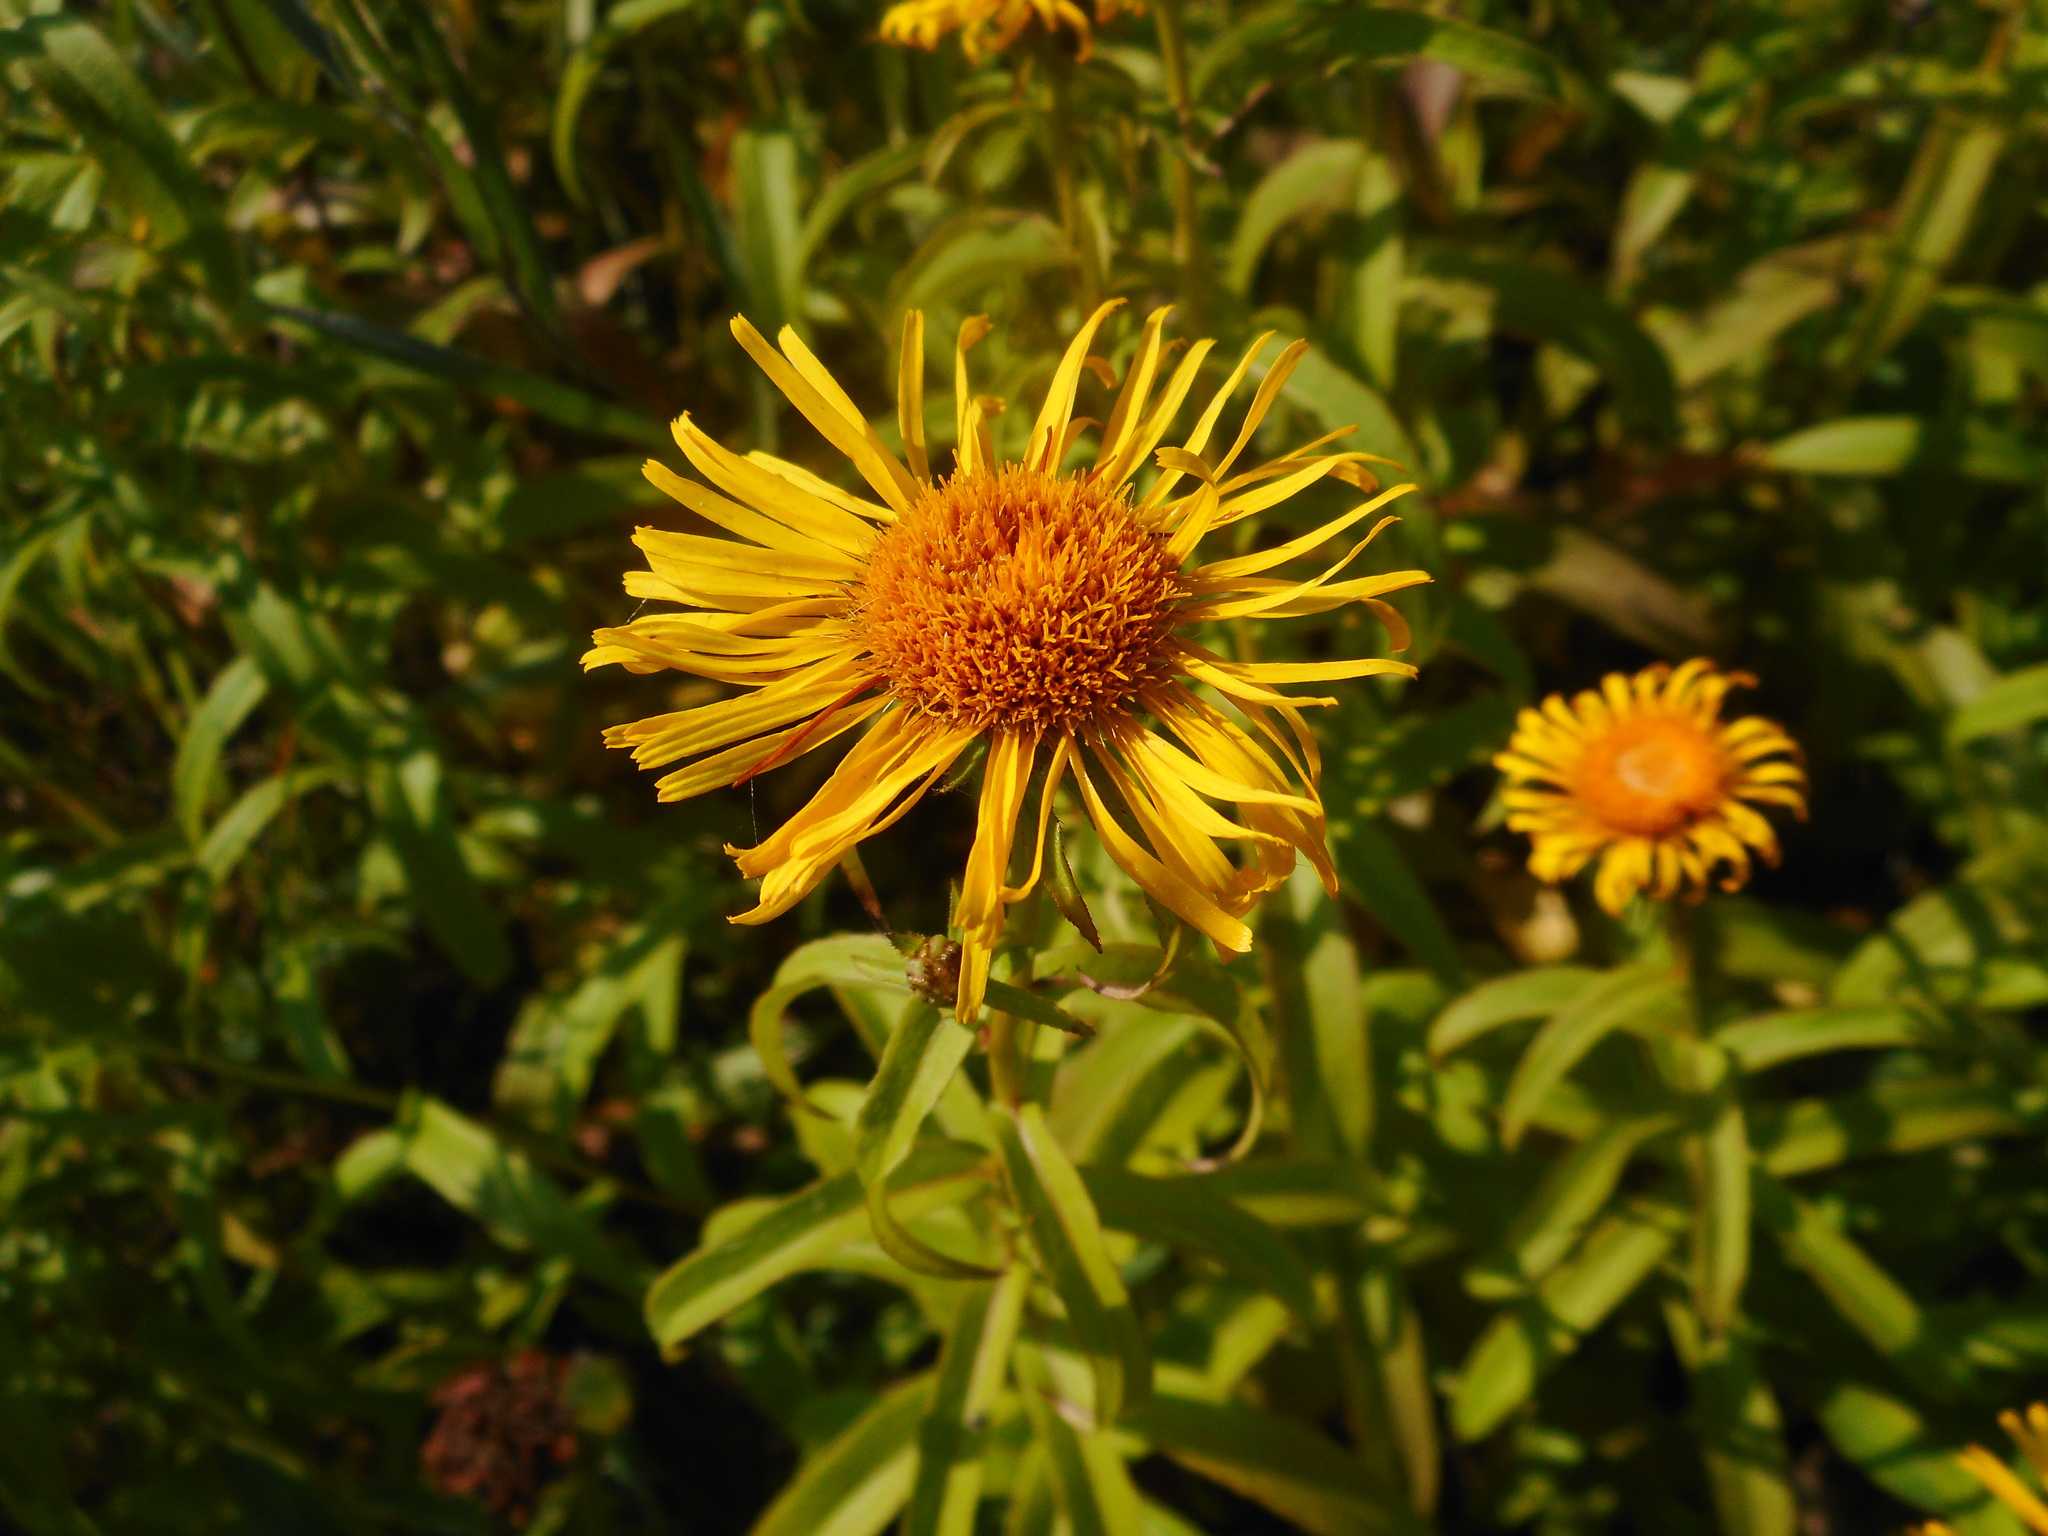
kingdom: Plantae
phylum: Tracheophyta
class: Magnoliopsida
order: Asterales
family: Asteraceae
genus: Pentanema
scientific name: Pentanema salicinum
